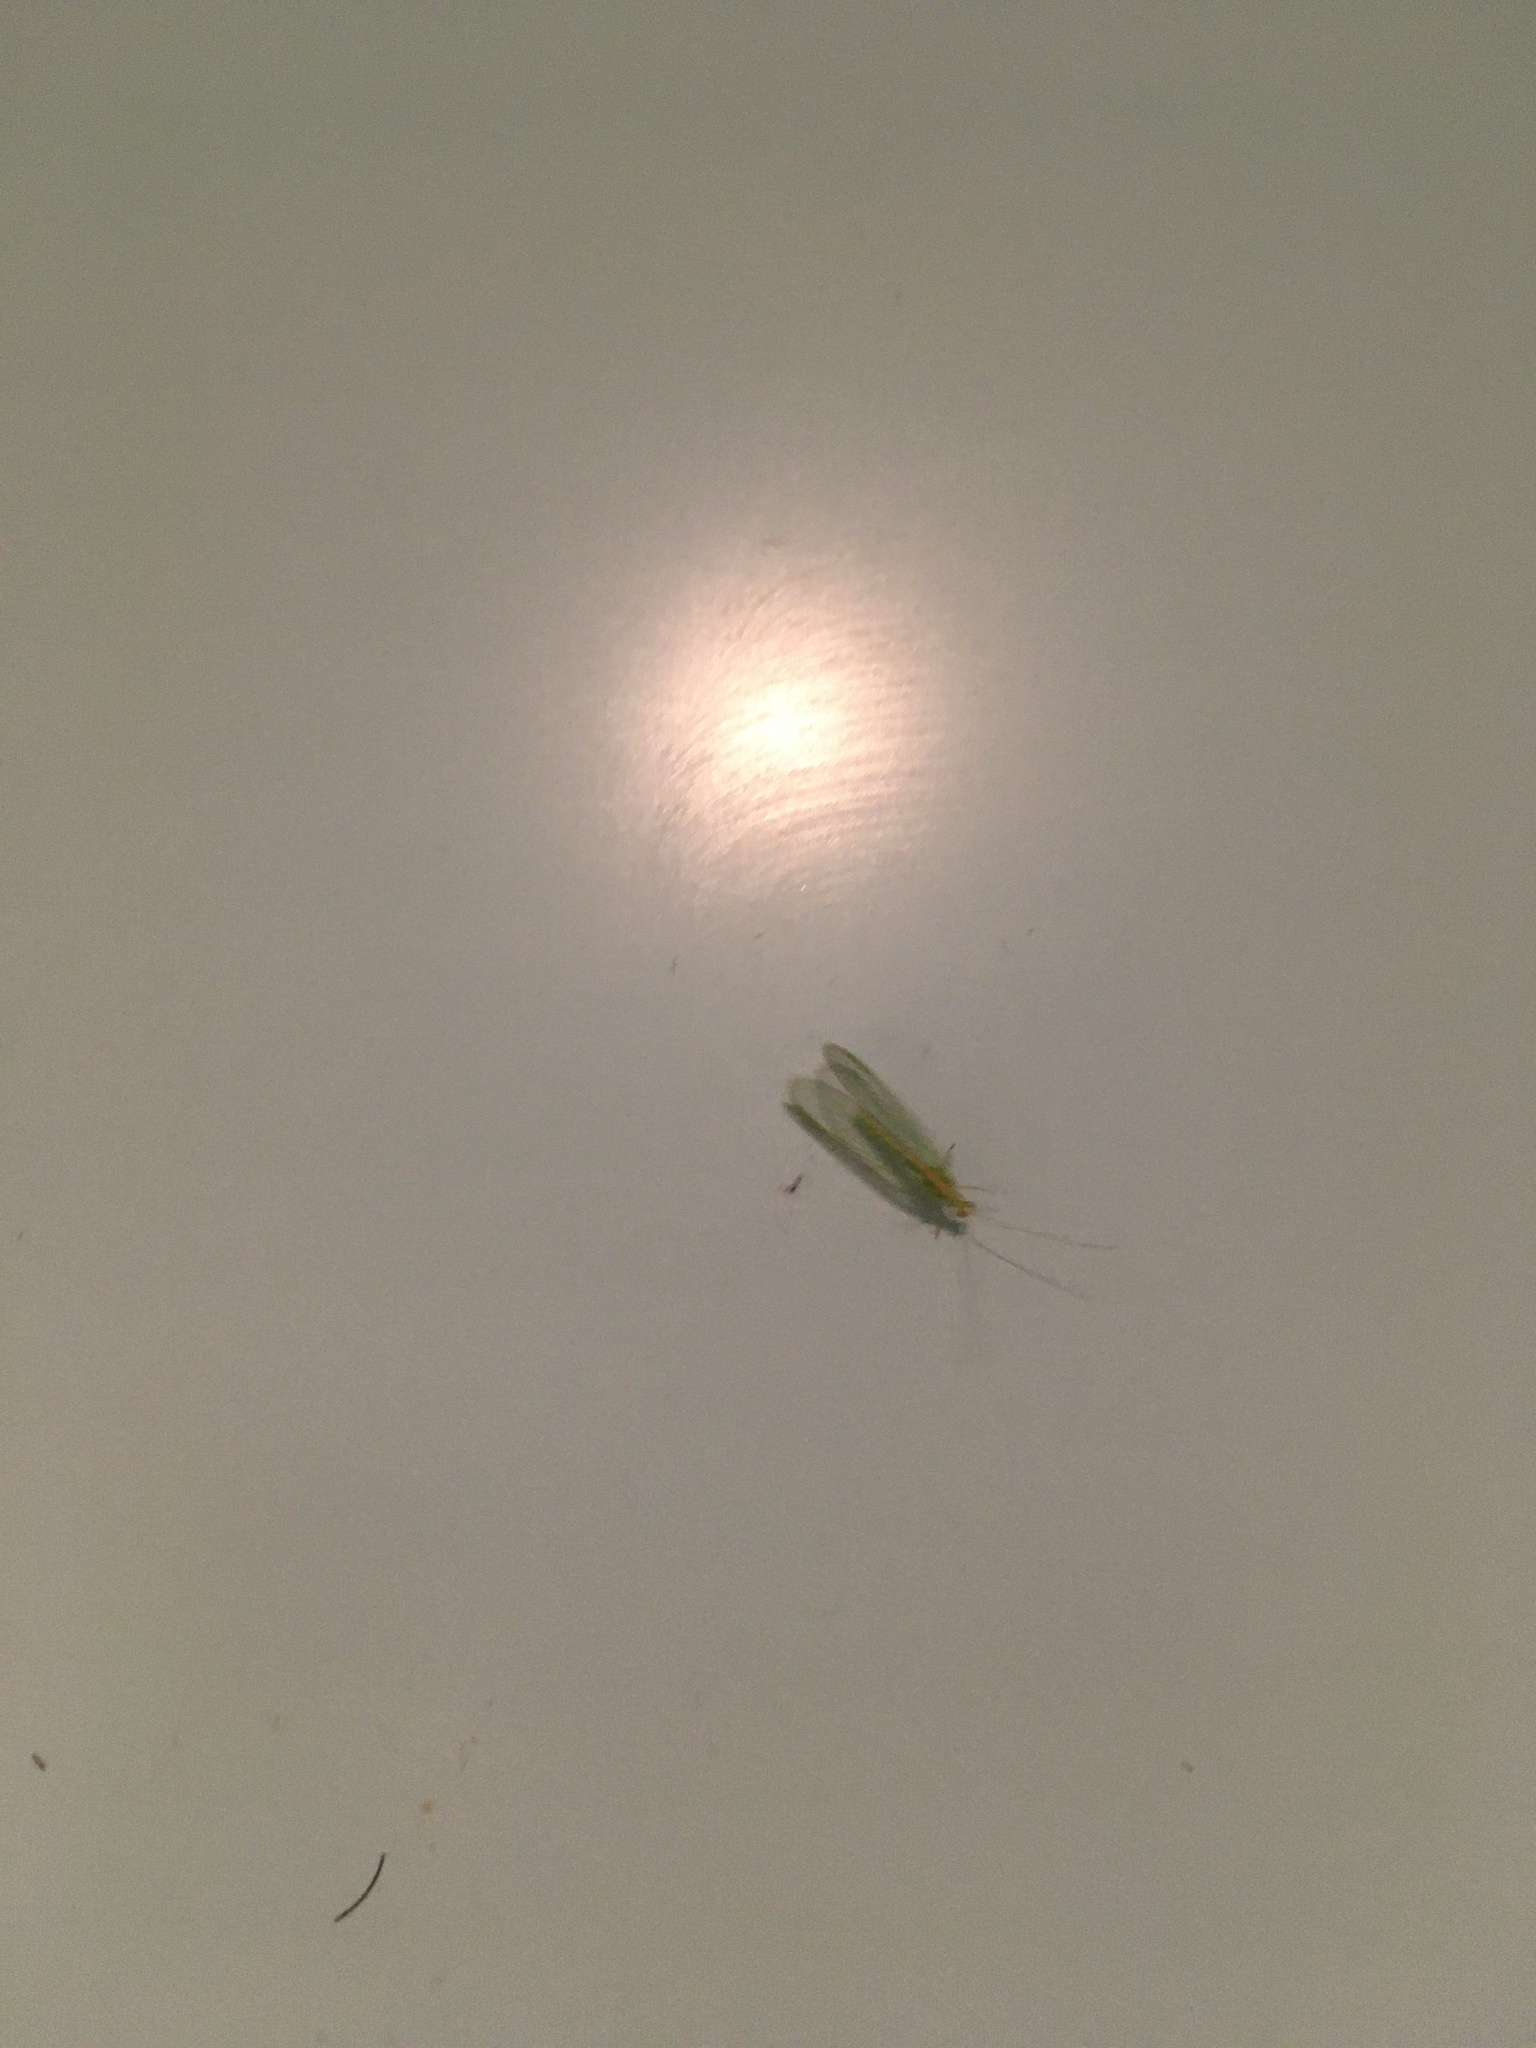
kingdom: Animalia
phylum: Arthropoda
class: Insecta
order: Neuroptera
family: Chrysopidae
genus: Chrysoperla
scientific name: Chrysoperla
